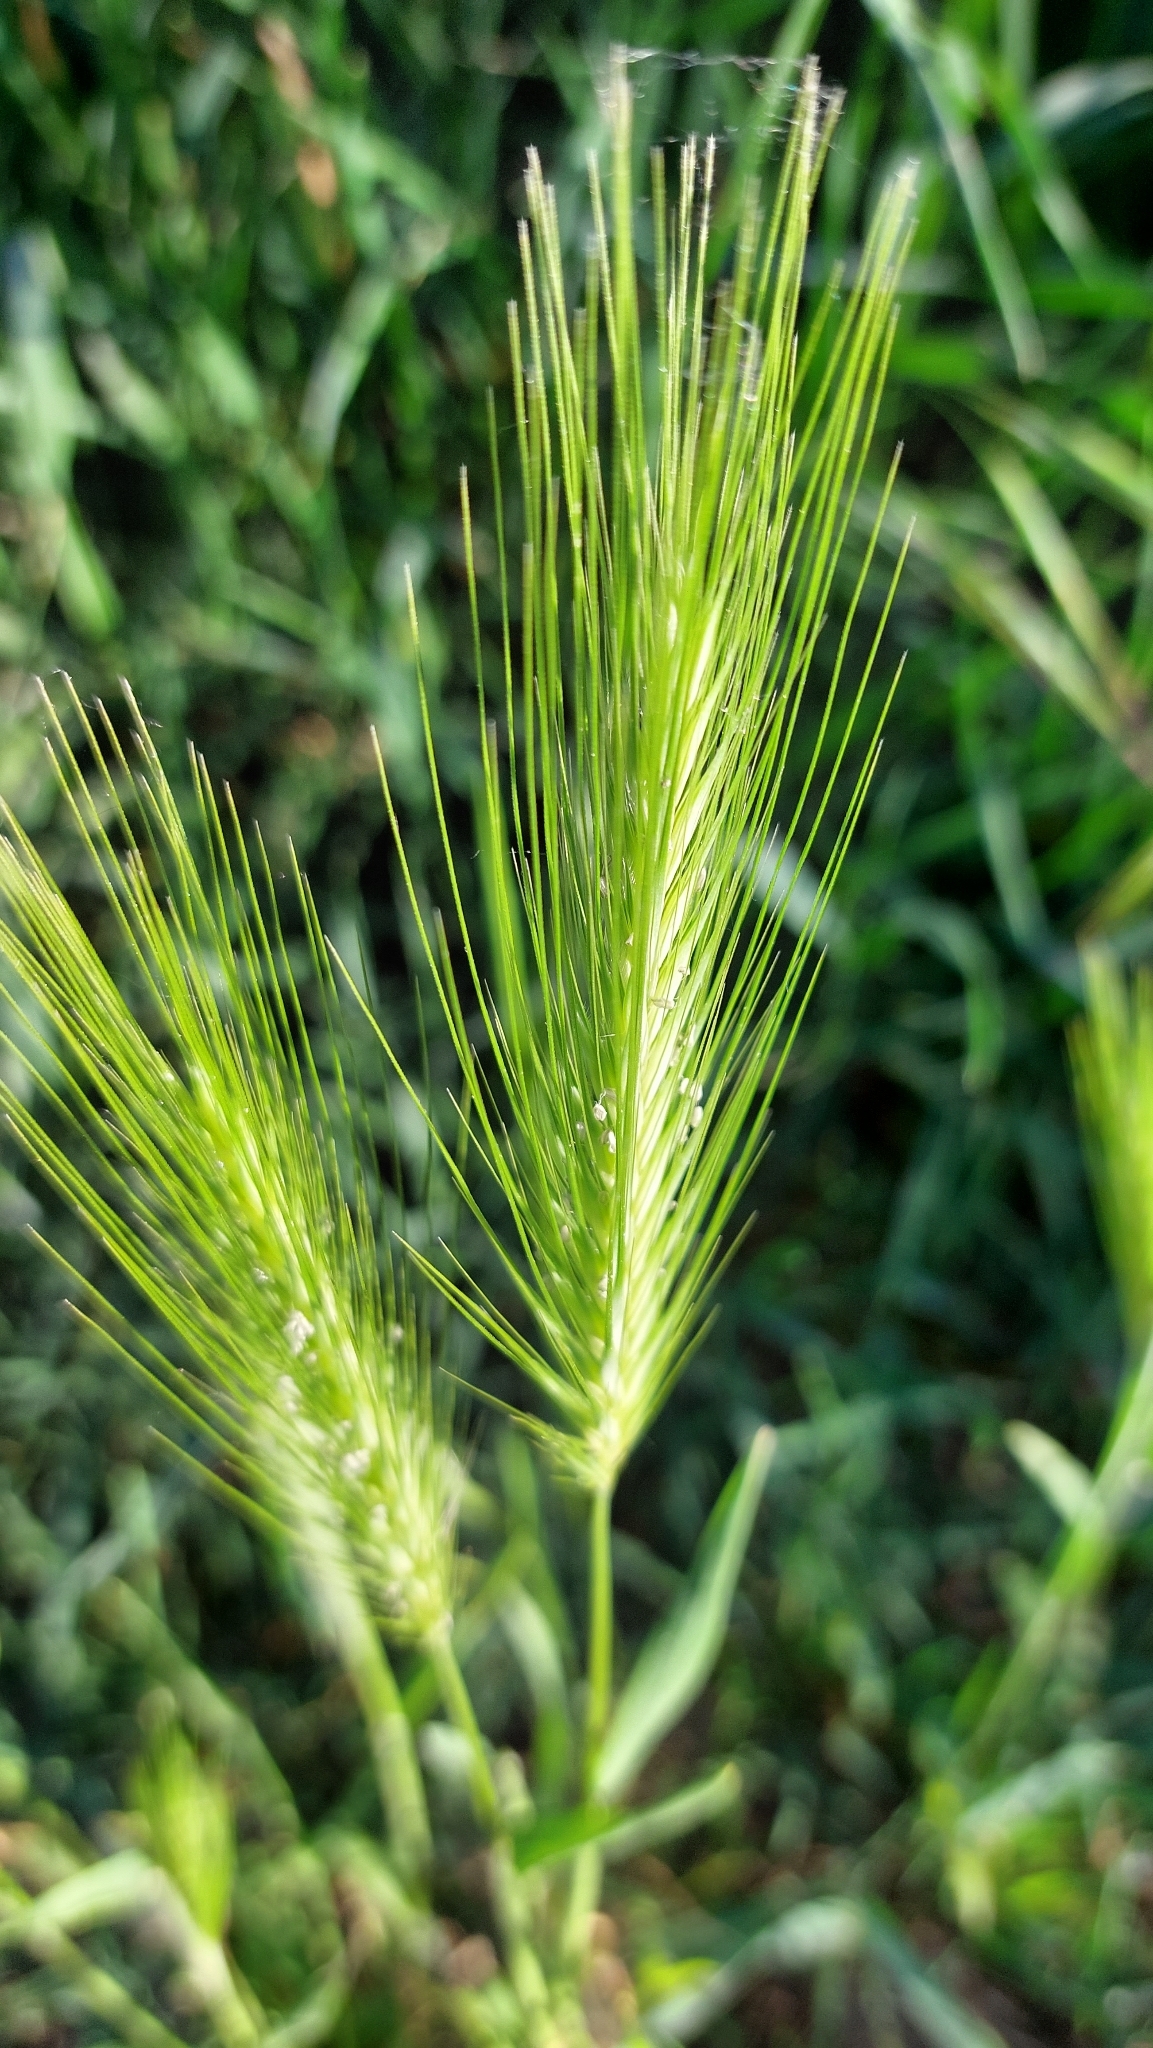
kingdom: Plantae
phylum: Tracheophyta
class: Liliopsida
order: Poales
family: Poaceae
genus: Hordeum
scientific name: Hordeum murinum
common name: Wall barley
